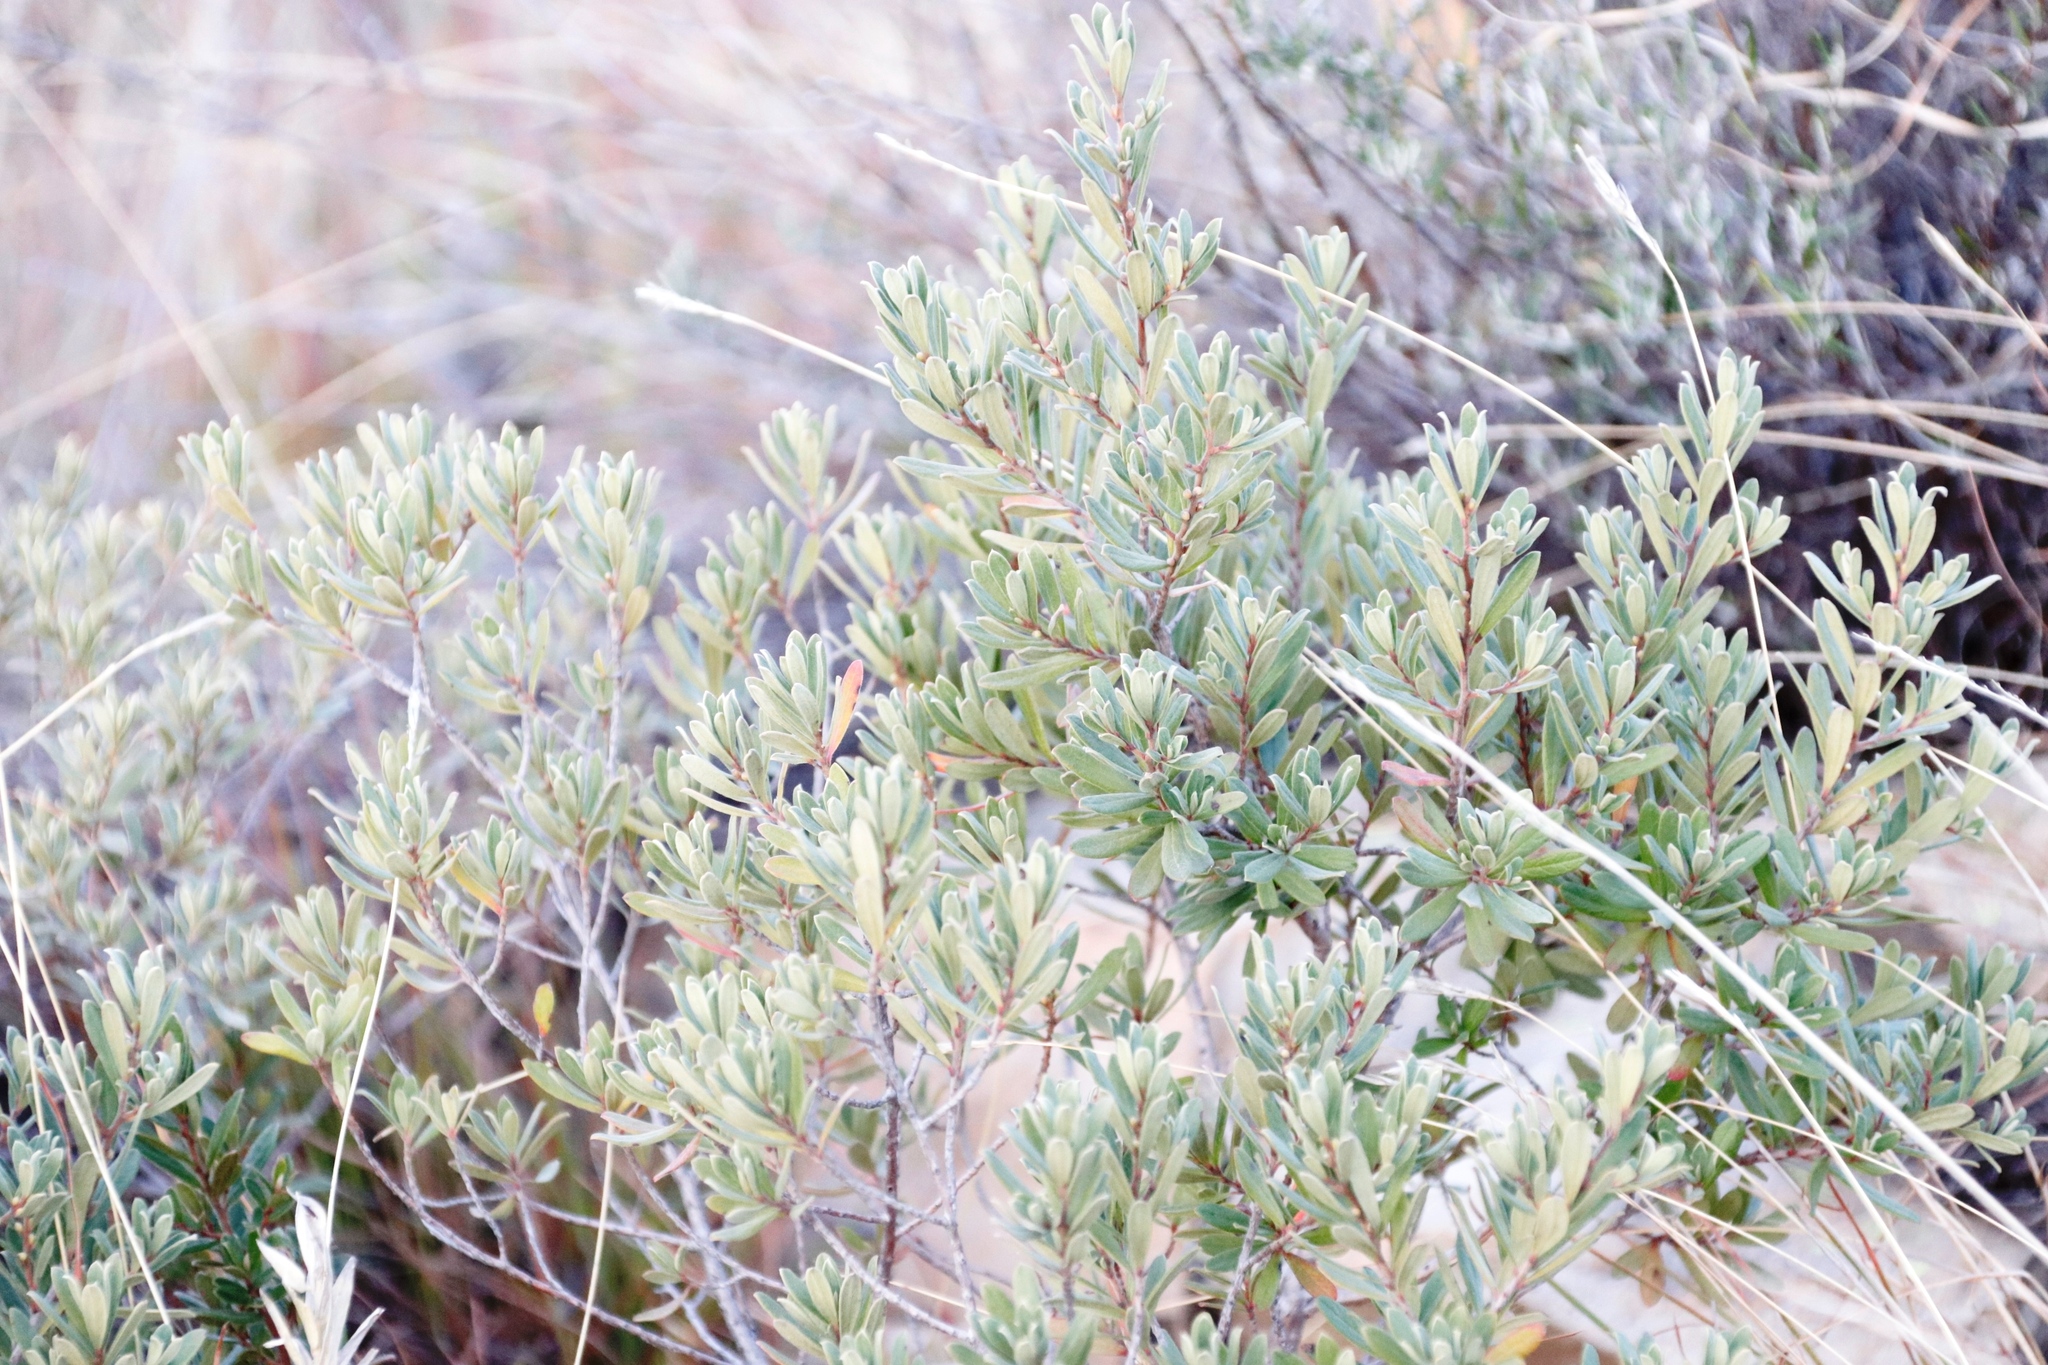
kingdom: Plantae
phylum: Tracheophyta
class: Magnoliopsida
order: Ericales
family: Ebenaceae
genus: Diospyros
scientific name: Diospyros pubescens
